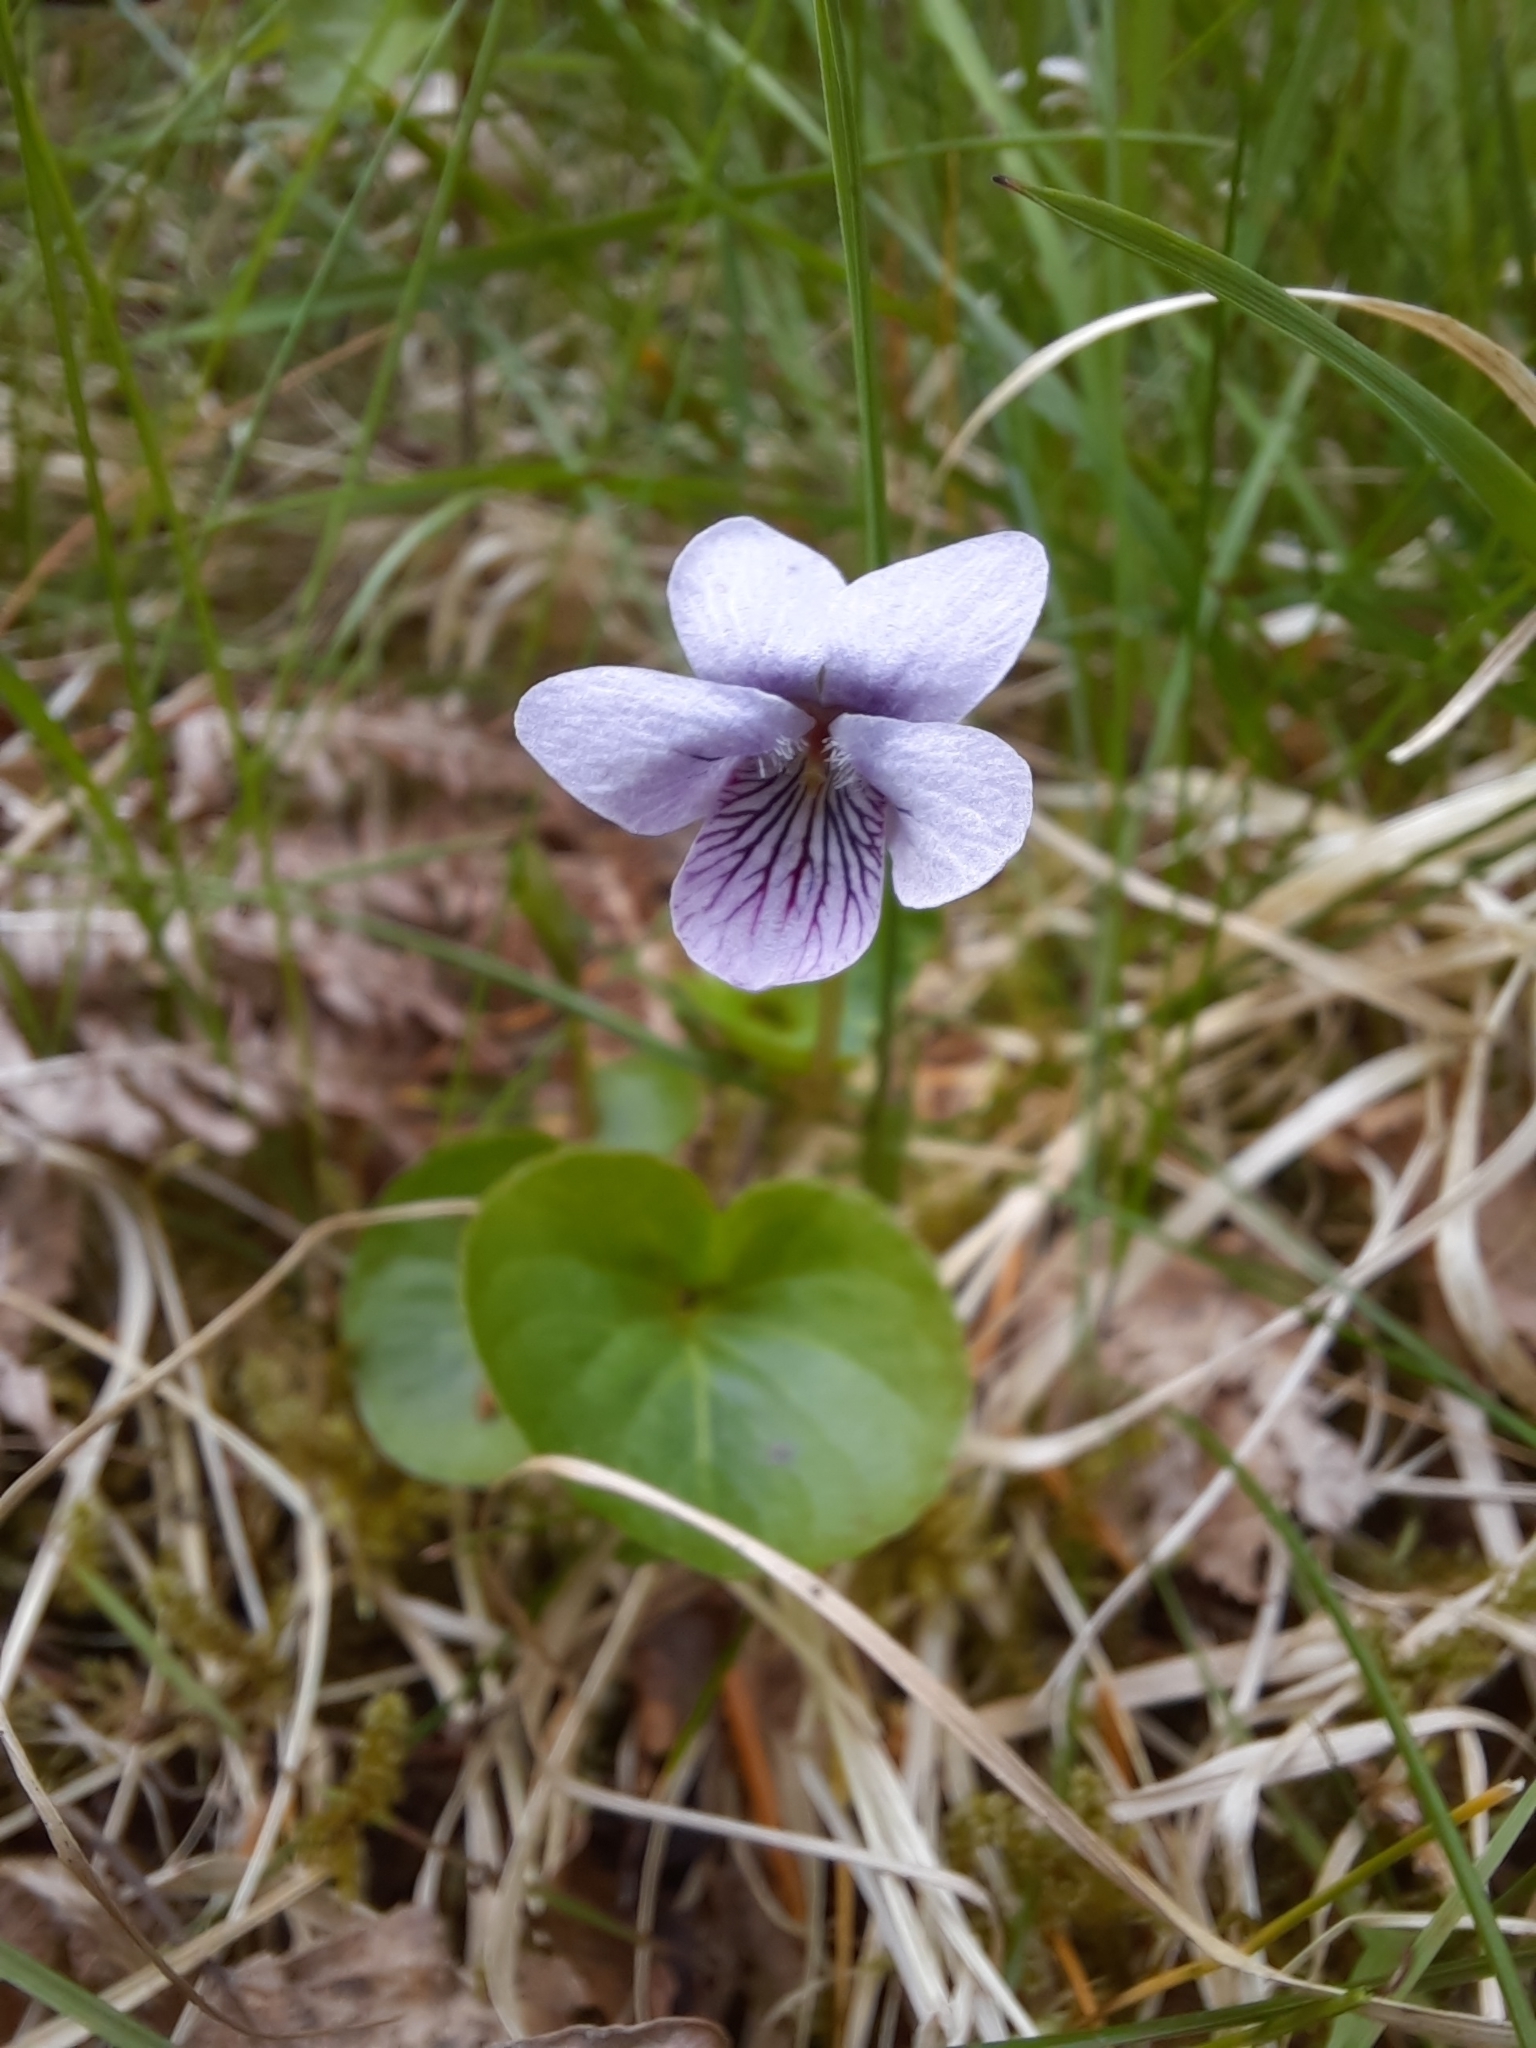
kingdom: Plantae
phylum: Tracheophyta
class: Magnoliopsida
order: Malpighiales
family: Violaceae
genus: Viola
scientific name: Viola palustris
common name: Marsh violet
